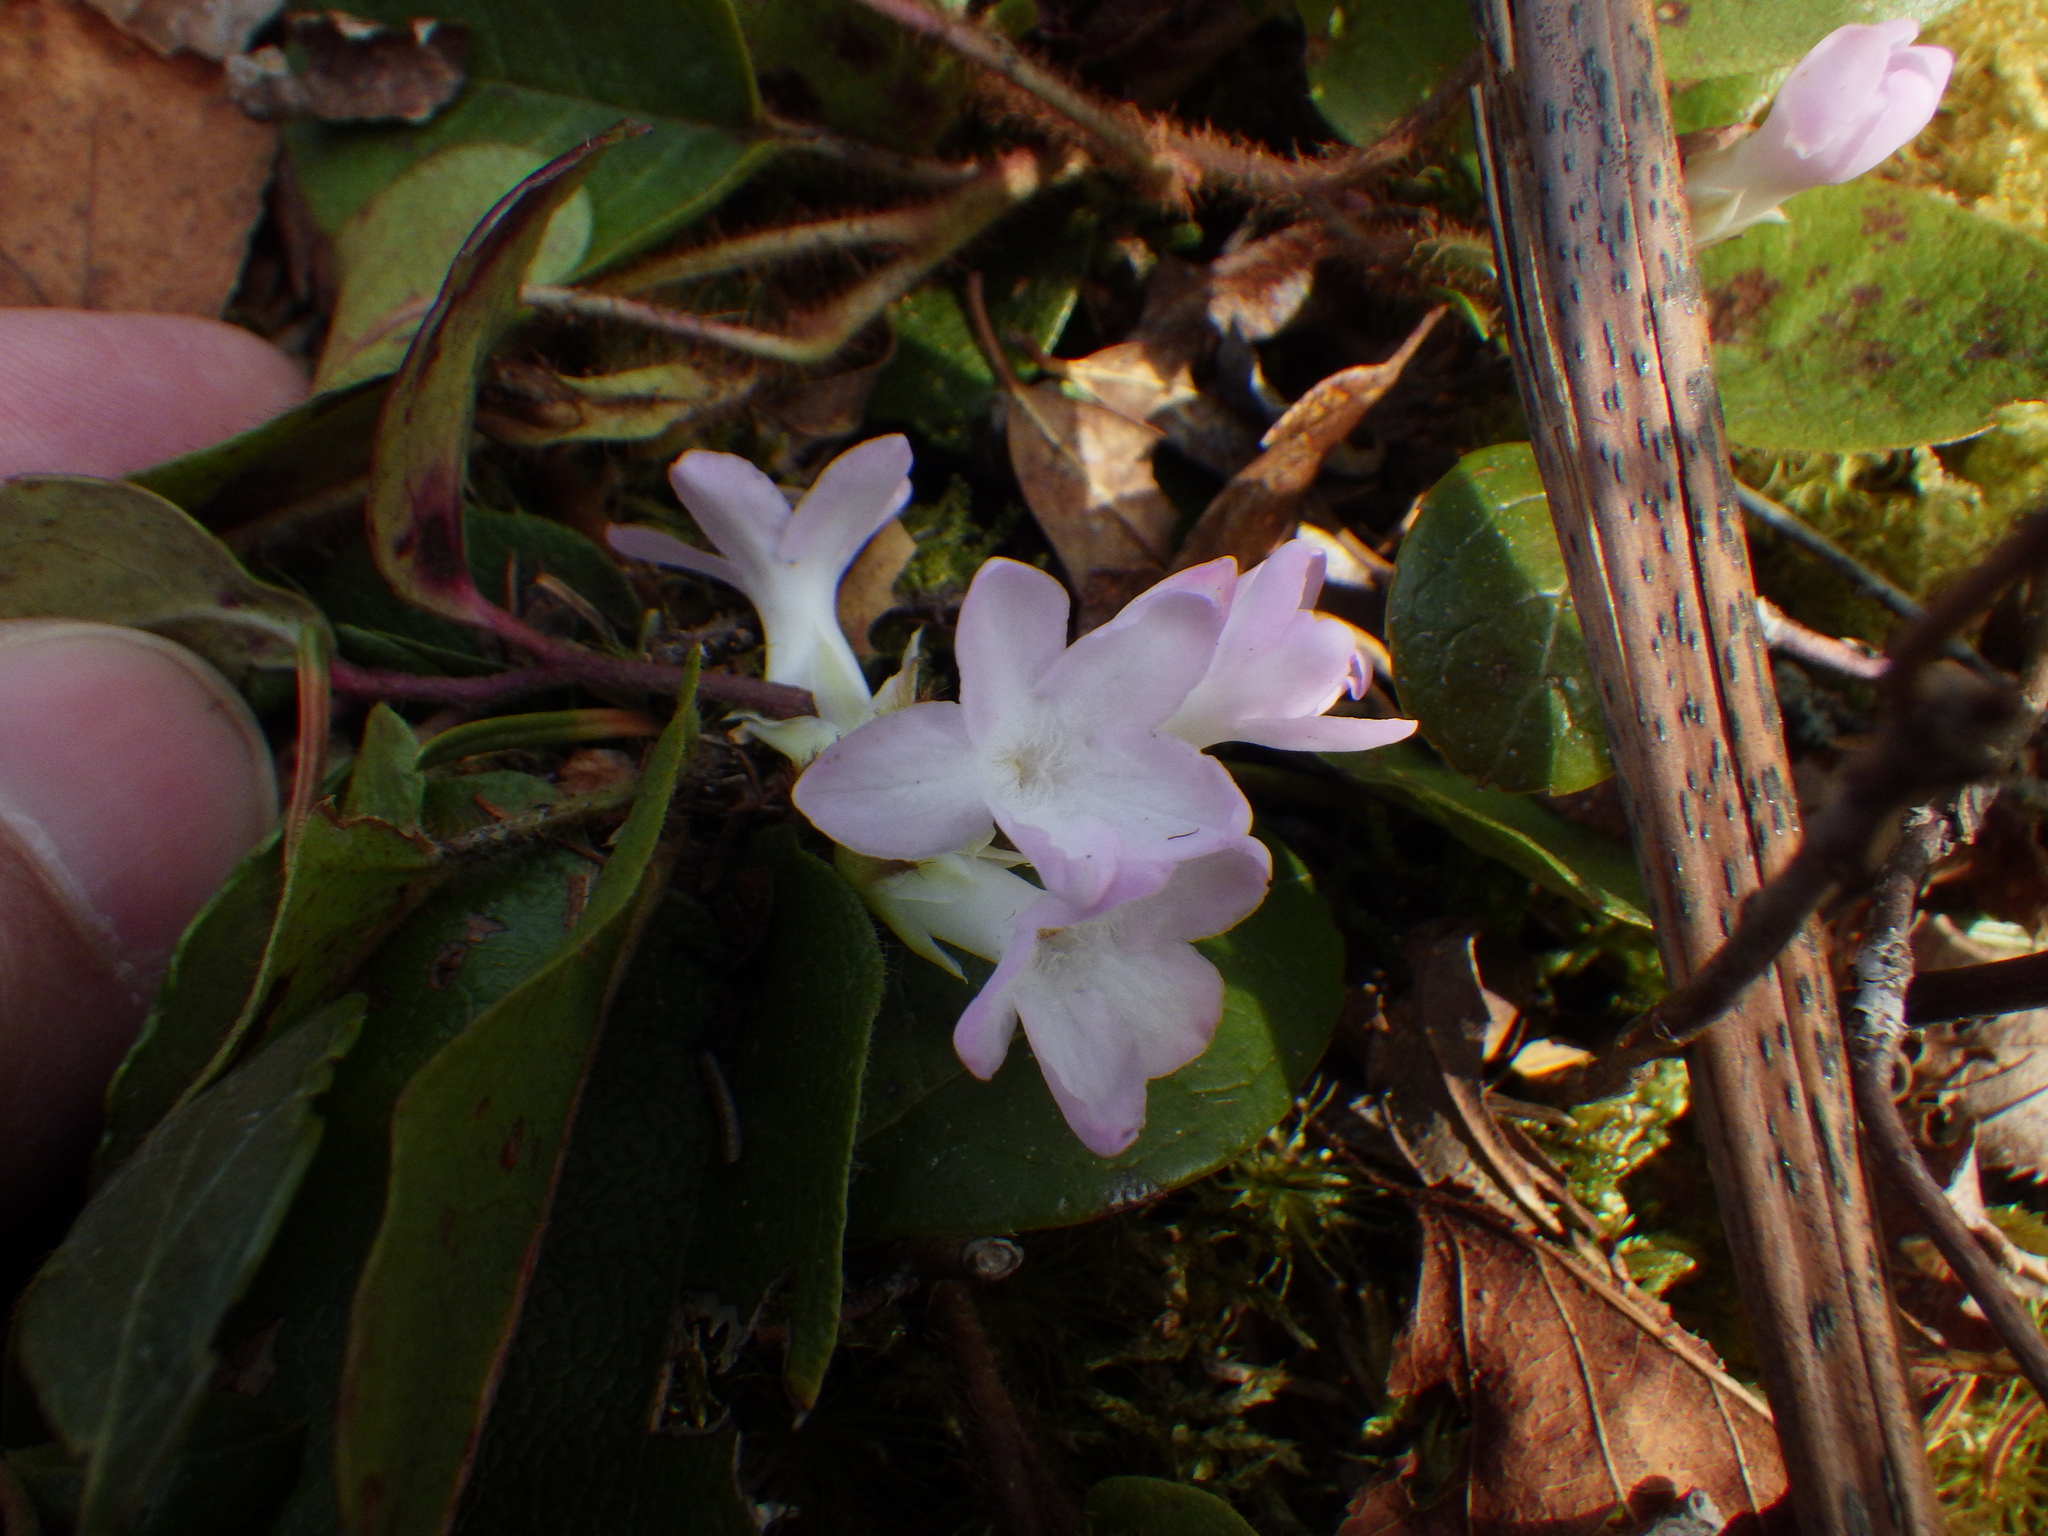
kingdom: Plantae
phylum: Tracheophyta
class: Magnoliopsida
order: Ericales
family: Ericaceae
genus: Epigaea
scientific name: Epigaea repens
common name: Gravelroot
